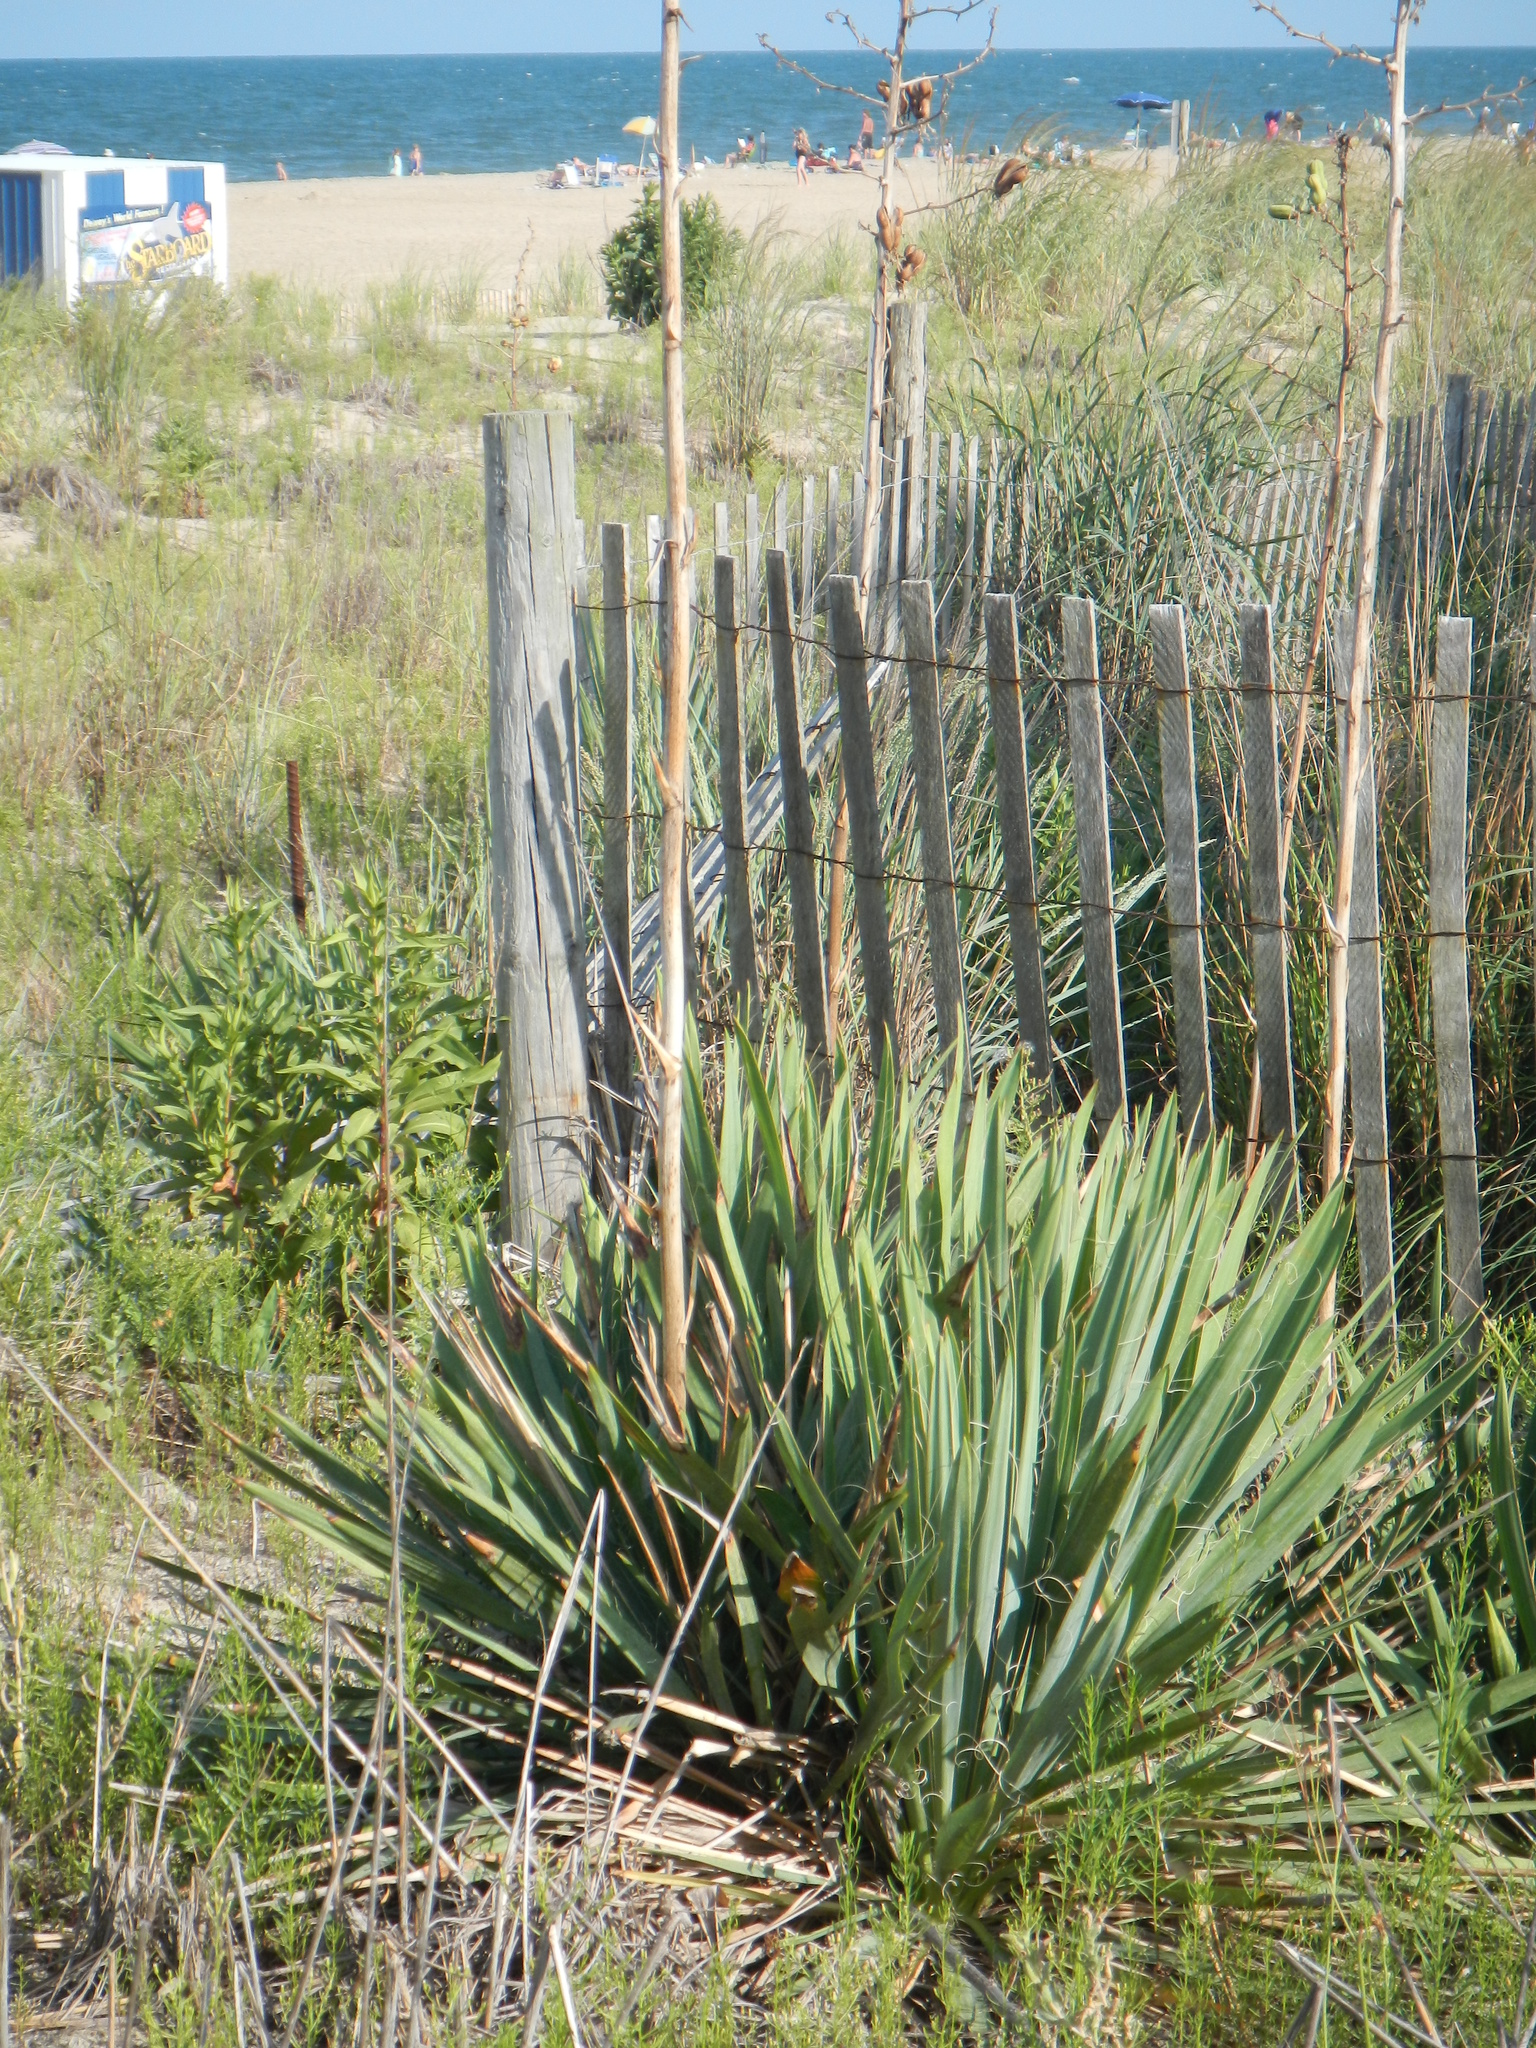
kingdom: Plantae
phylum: Tracheophyta
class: Liliopsida
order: Asparagales
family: Asparagaceae
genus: Yucca
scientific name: Yucca filamentosa
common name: Adam's-needle
